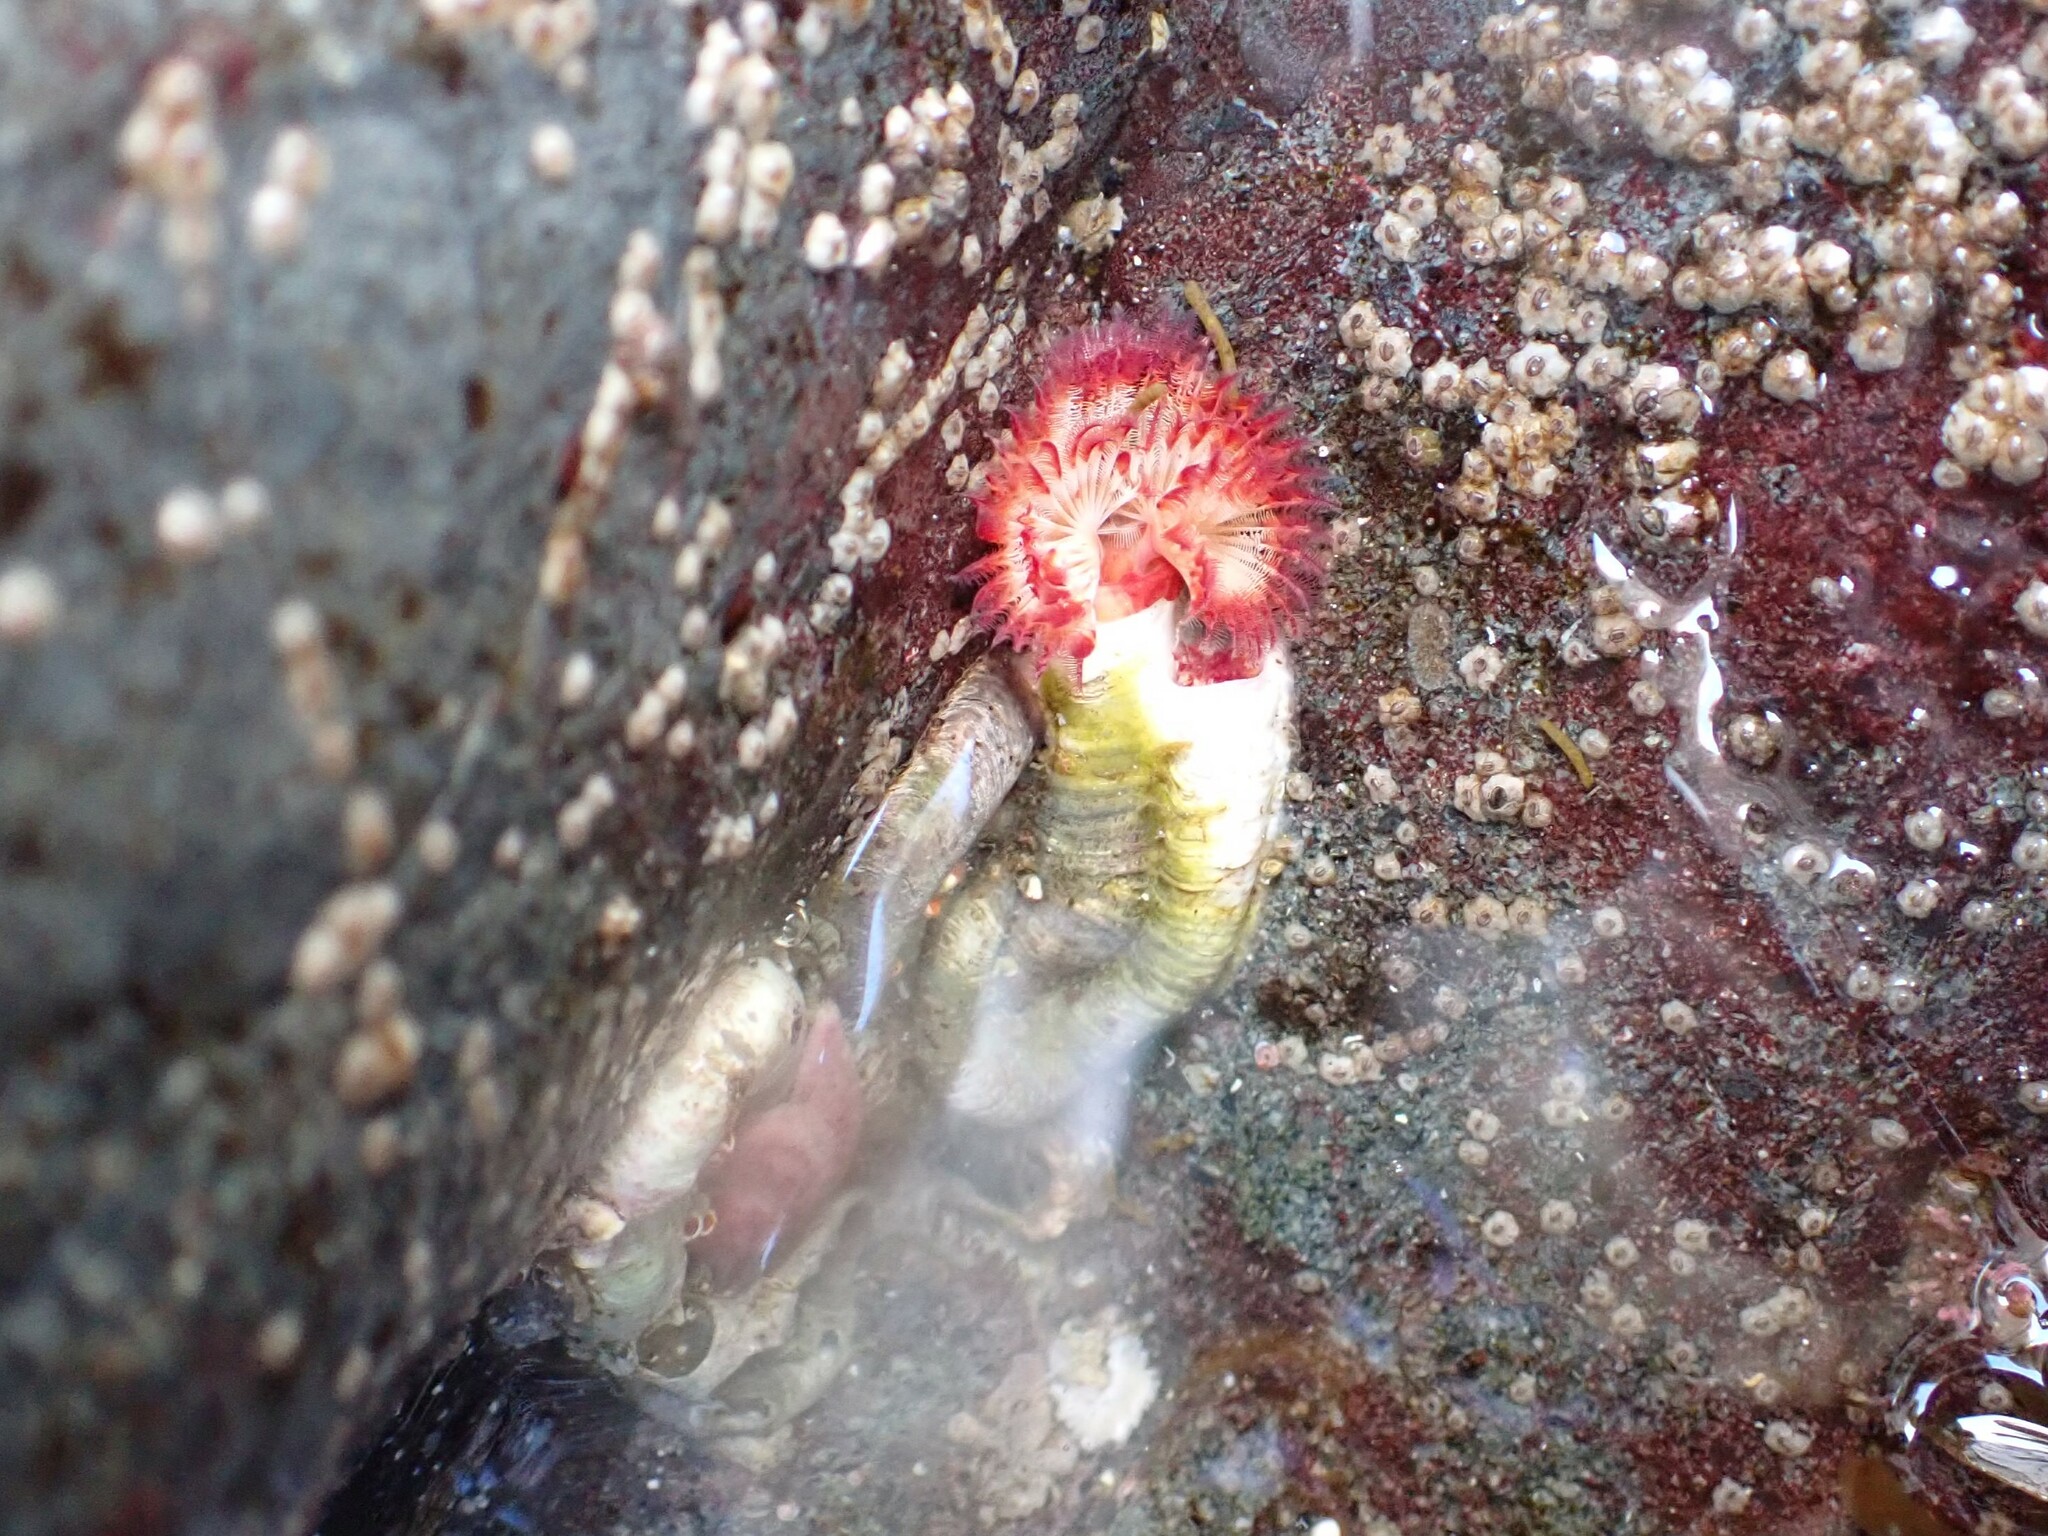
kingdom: Animalia
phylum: Annelida
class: Polychaeta
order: Sabellida
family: Serpulidae
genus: Serpula
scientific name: Serpula columbiana
